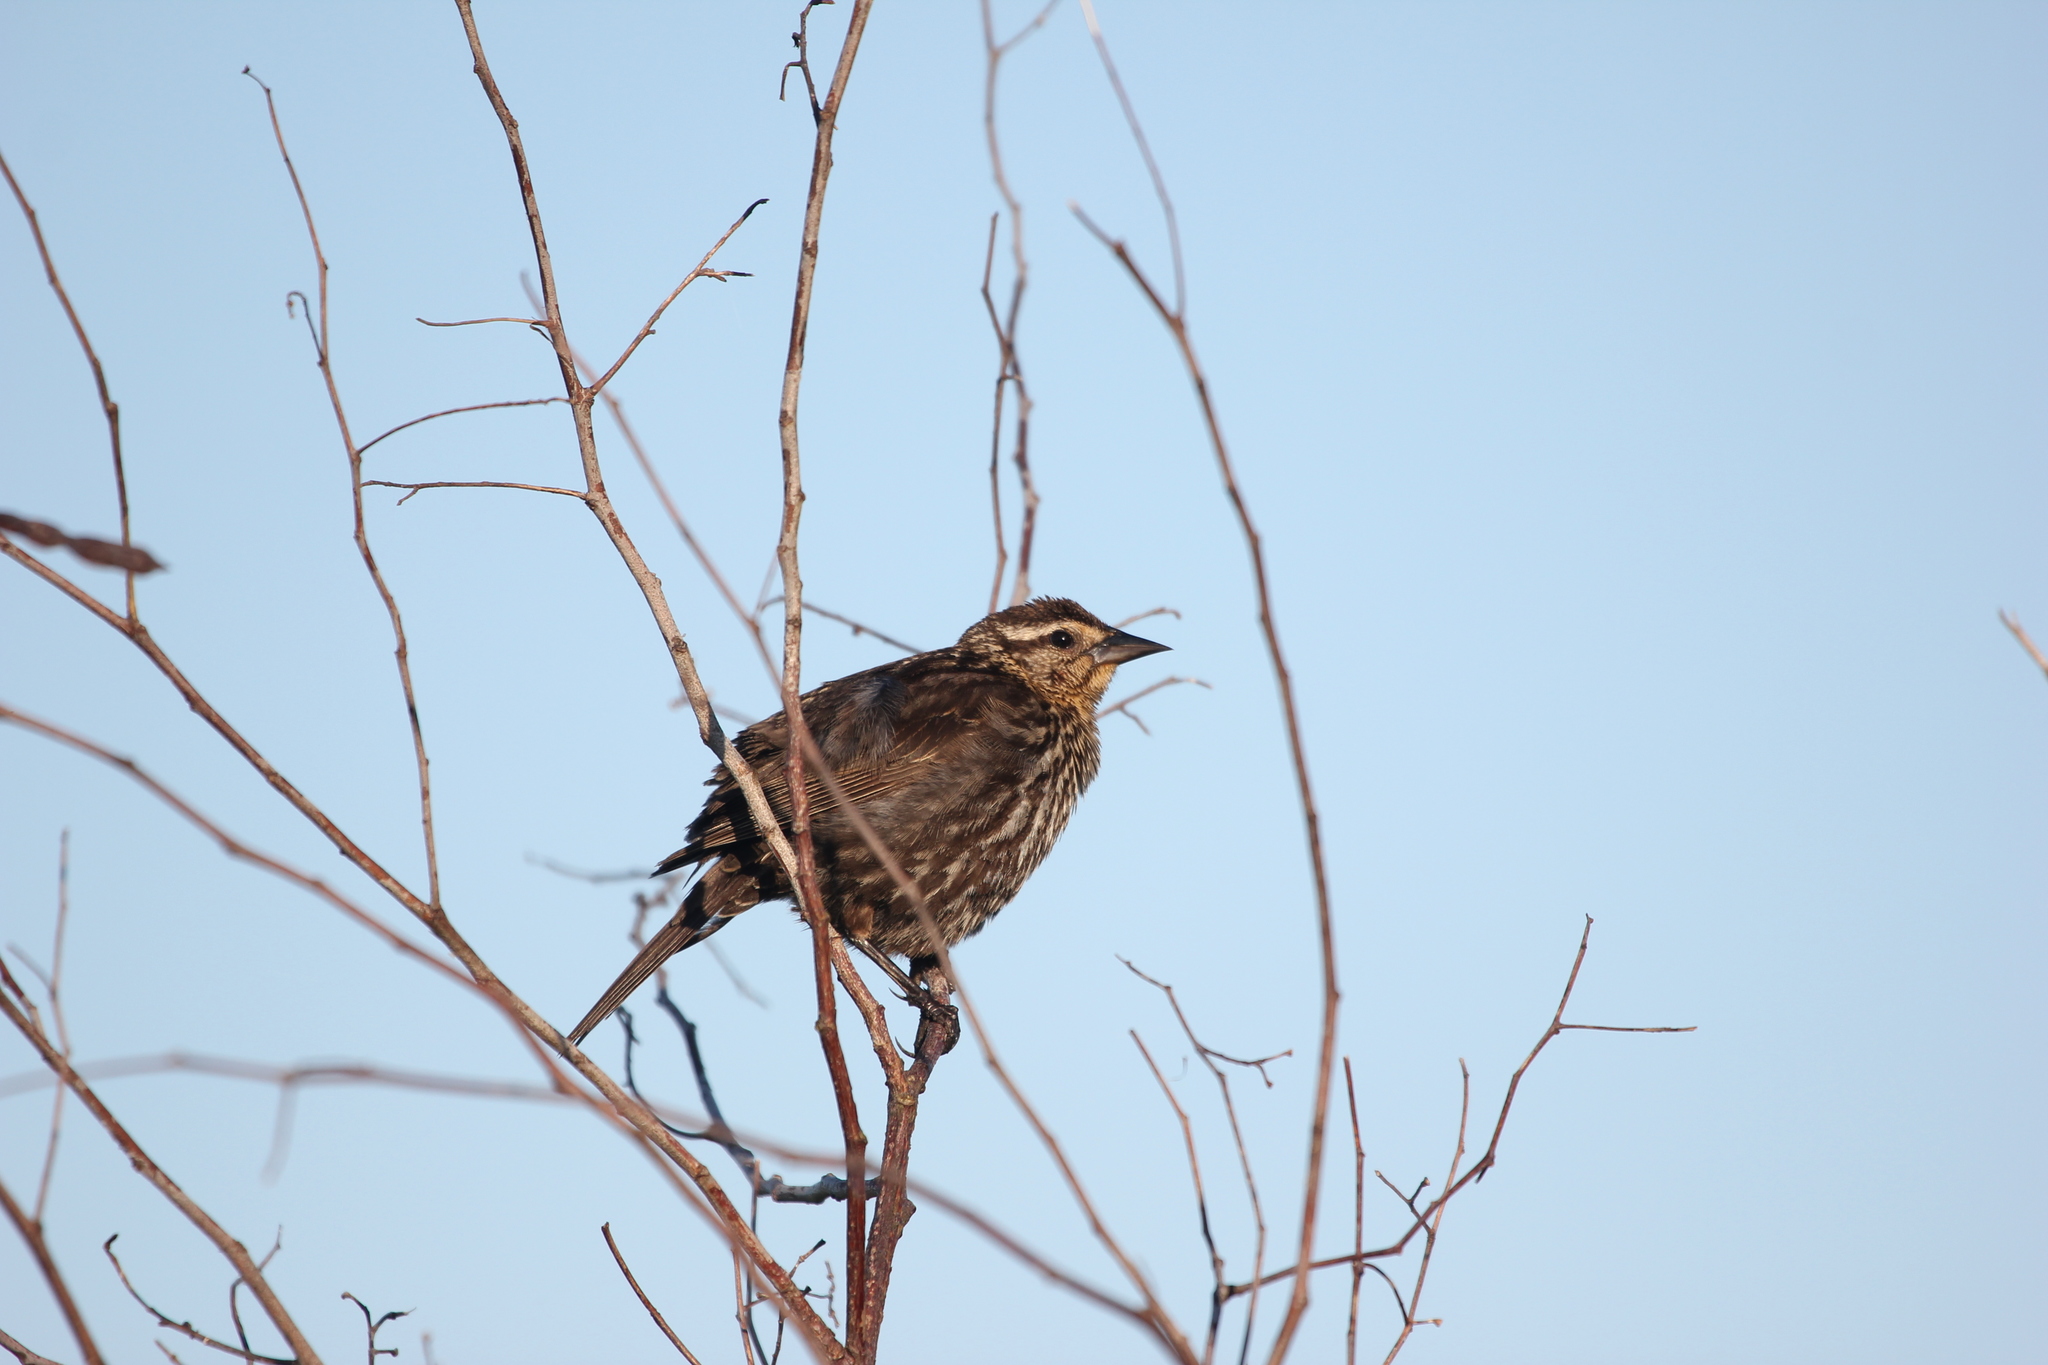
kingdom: Animalia
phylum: Chordata
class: Aves
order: Passeriformes
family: Icteridae
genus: Agelaius
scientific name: Agelaius phoeniceus
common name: Red-winged blackbird
